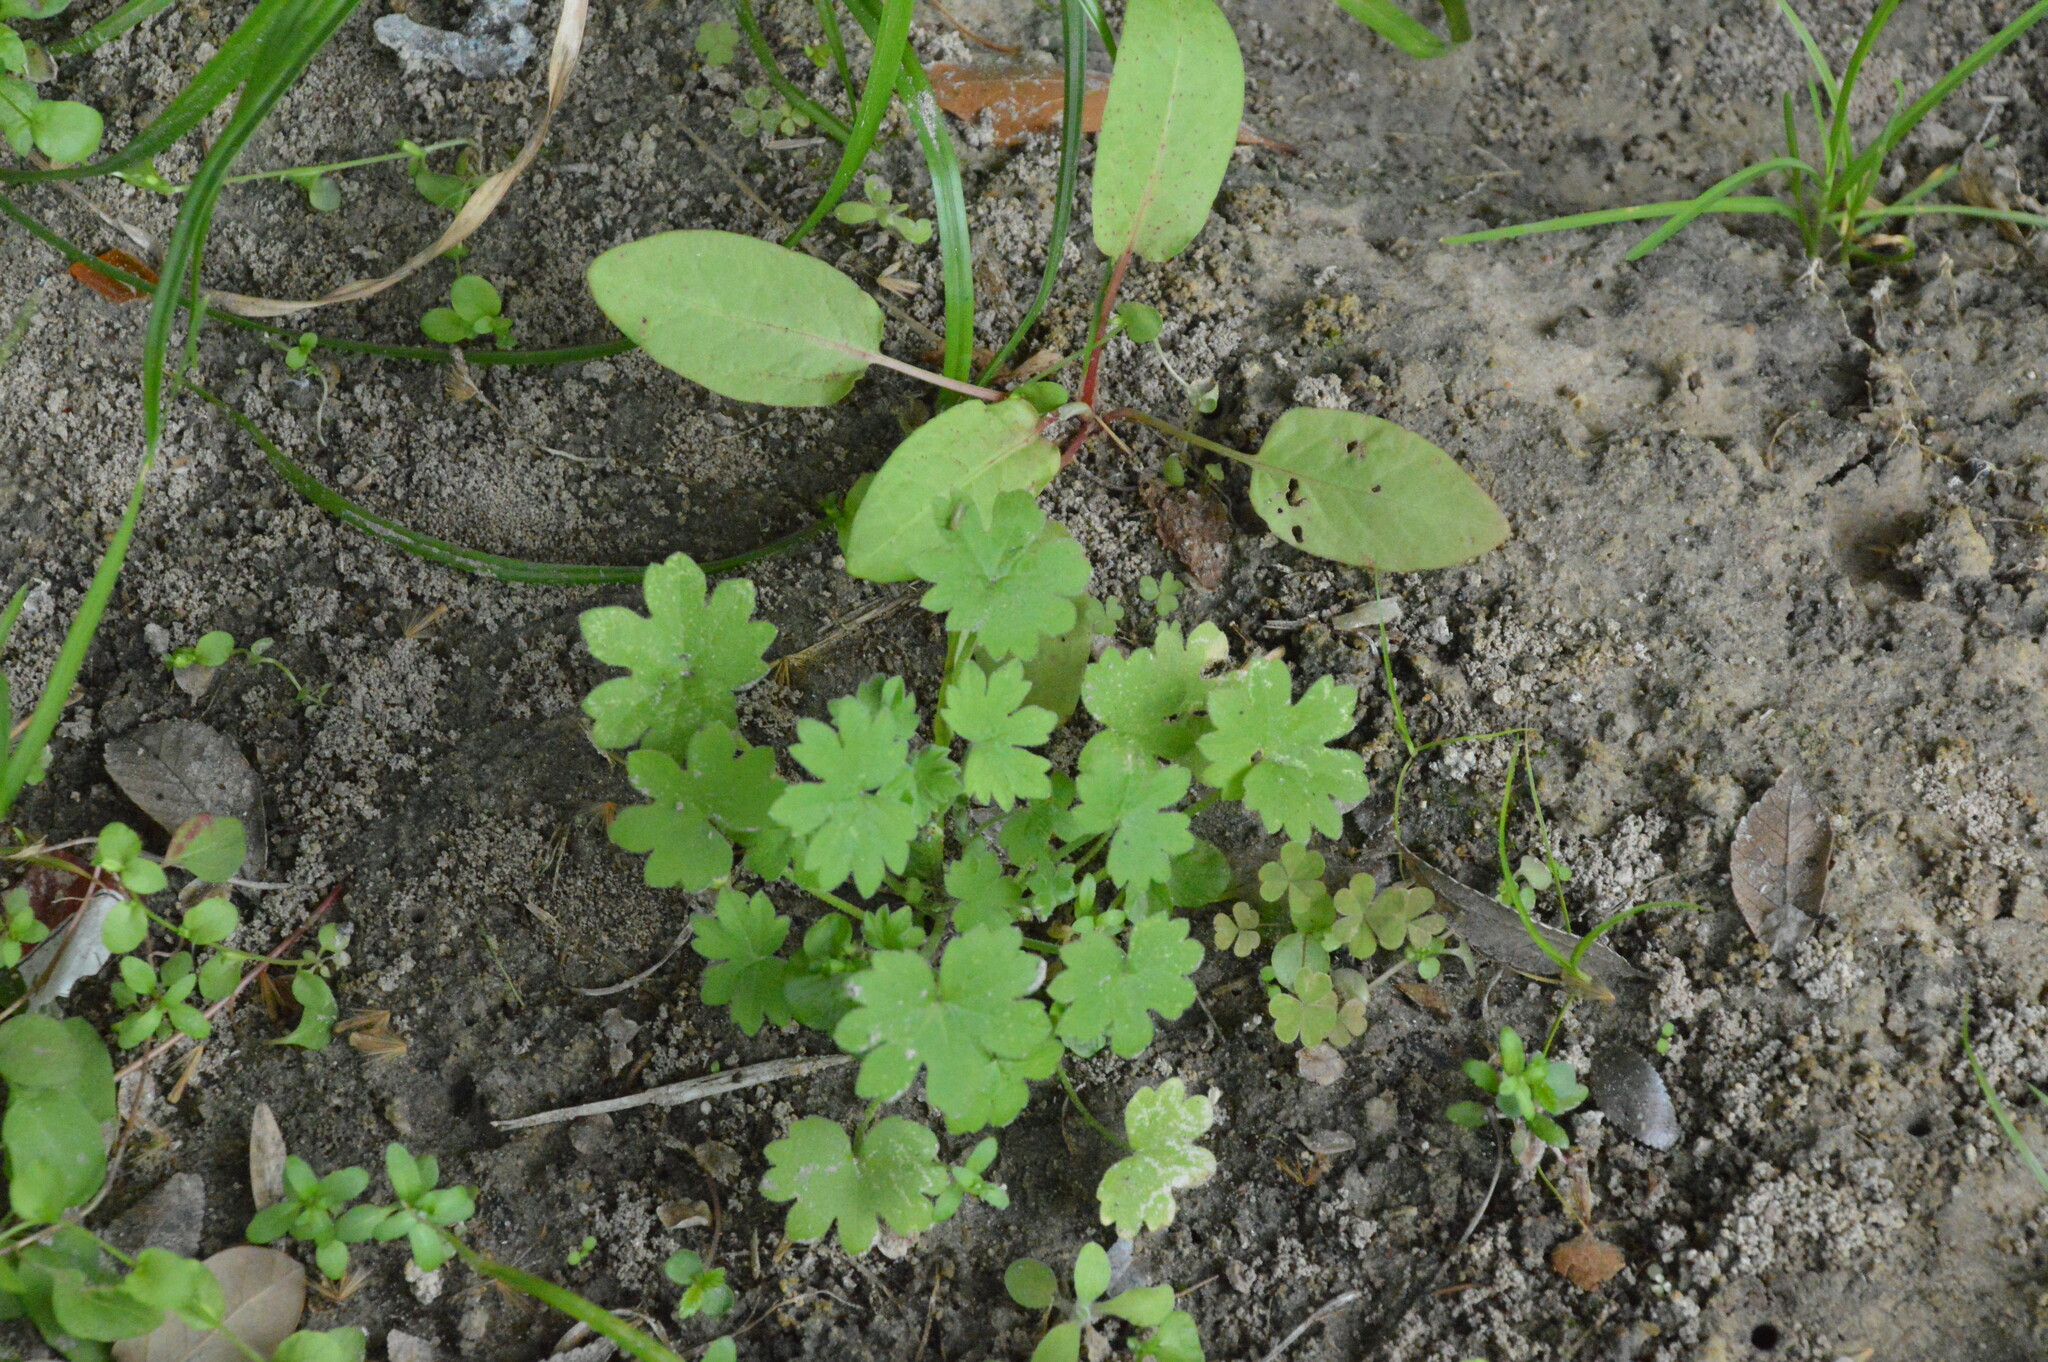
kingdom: Plantae
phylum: Tracheophyta
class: Magnoliopsida
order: Apiales
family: Apiaceae
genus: Bowlesia
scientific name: Bowlesia incana
